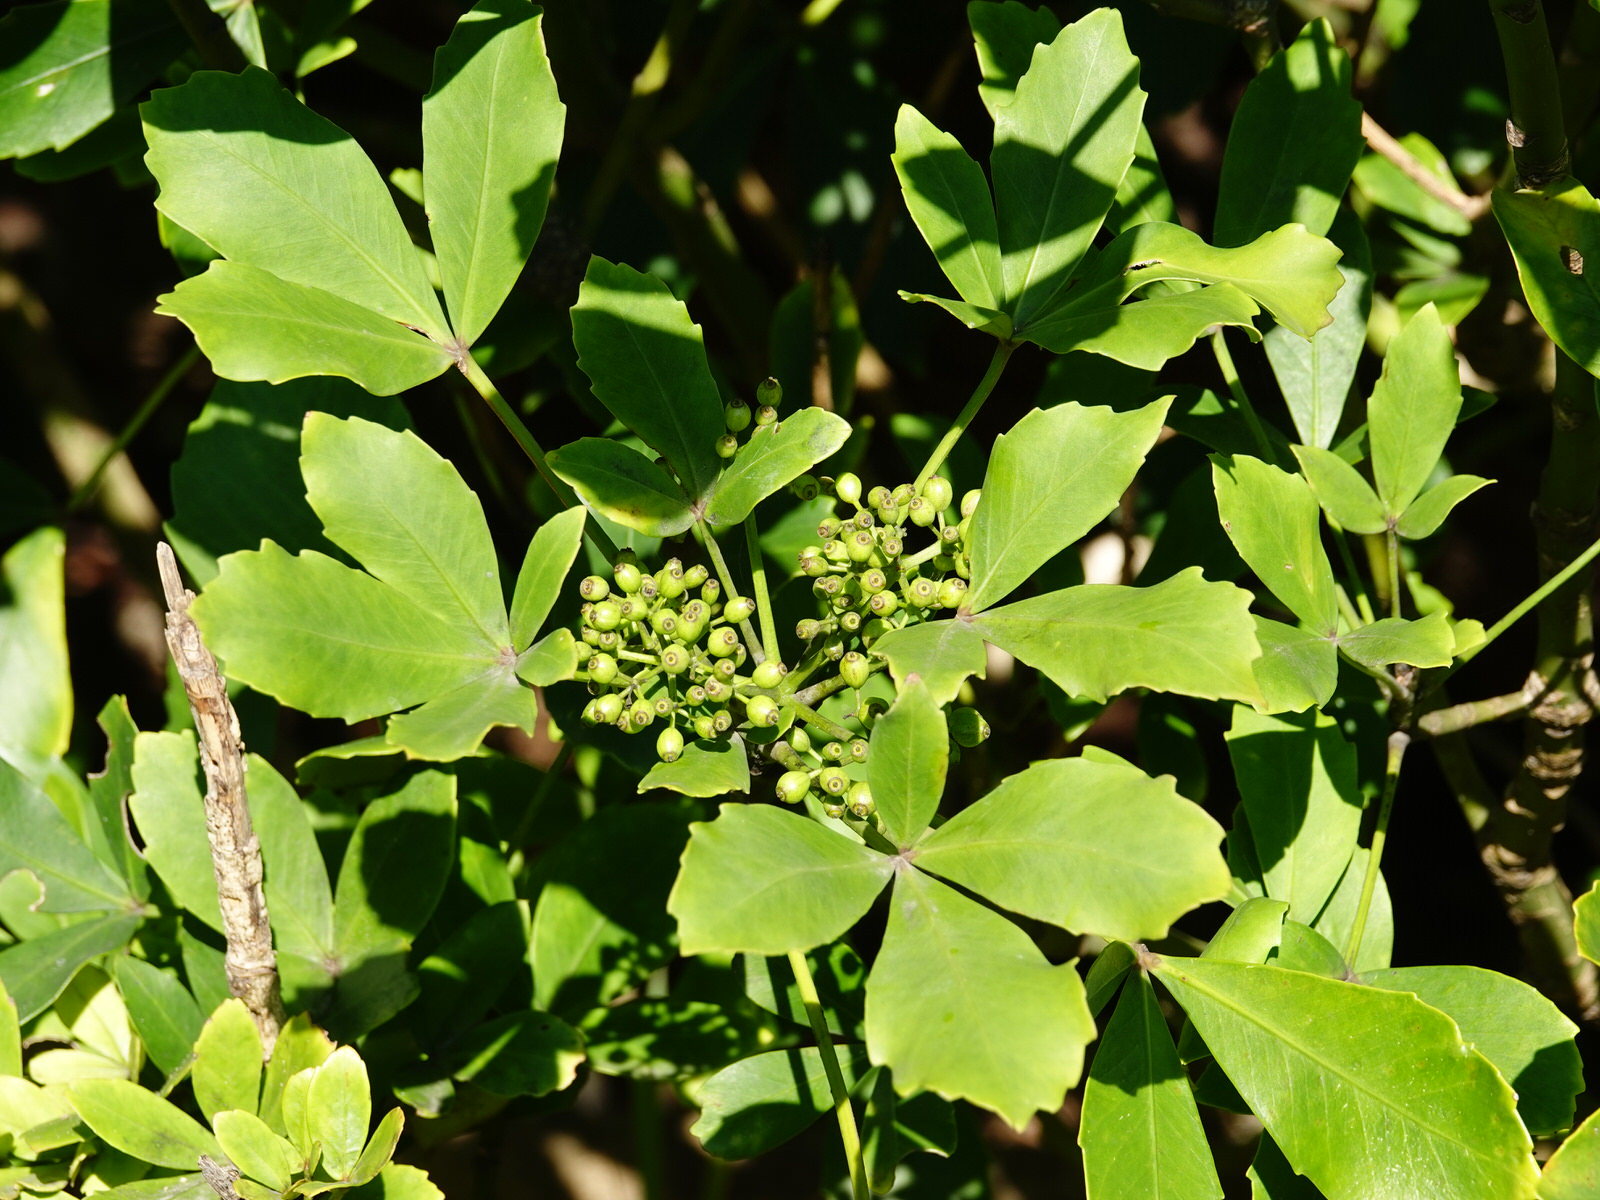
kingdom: Plantae
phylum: Tracheophyta
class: Magnoliopsida
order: Apiales
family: Araliaceae
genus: Pseudopanax
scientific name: Pseudopanax lessonii
